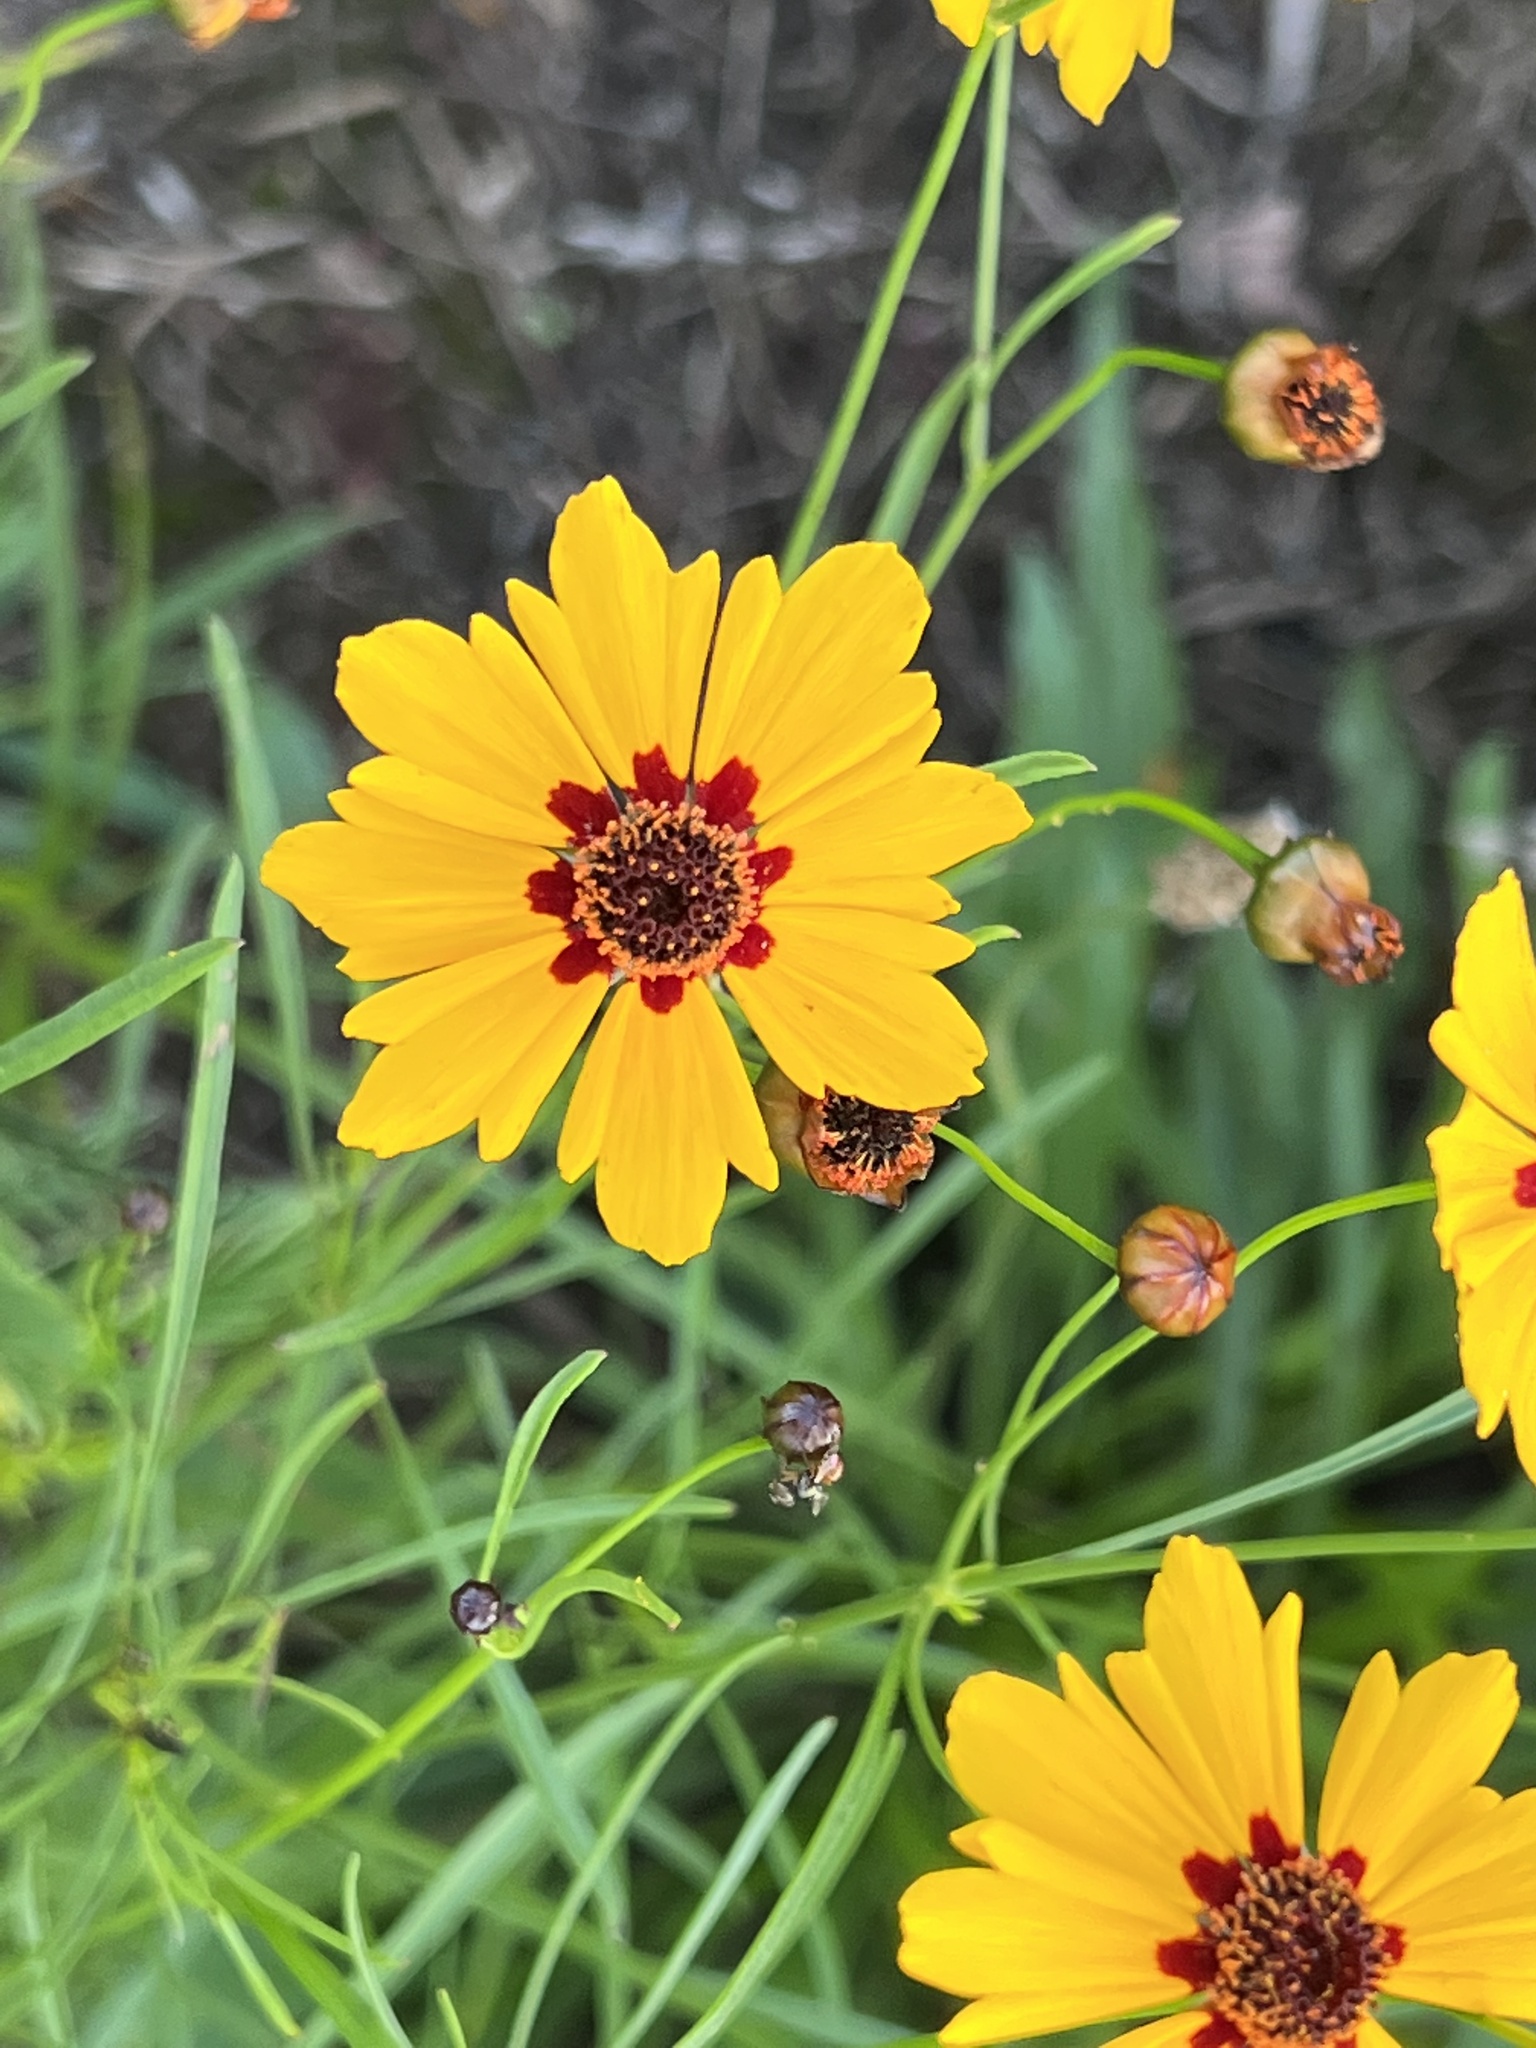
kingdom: Plantae
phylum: Tracheophyta
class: Magnoliopsida
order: Asterales
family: Asteraceae
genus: Coreopsis
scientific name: Coreopsis tinctoria
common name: Garden tickseed
